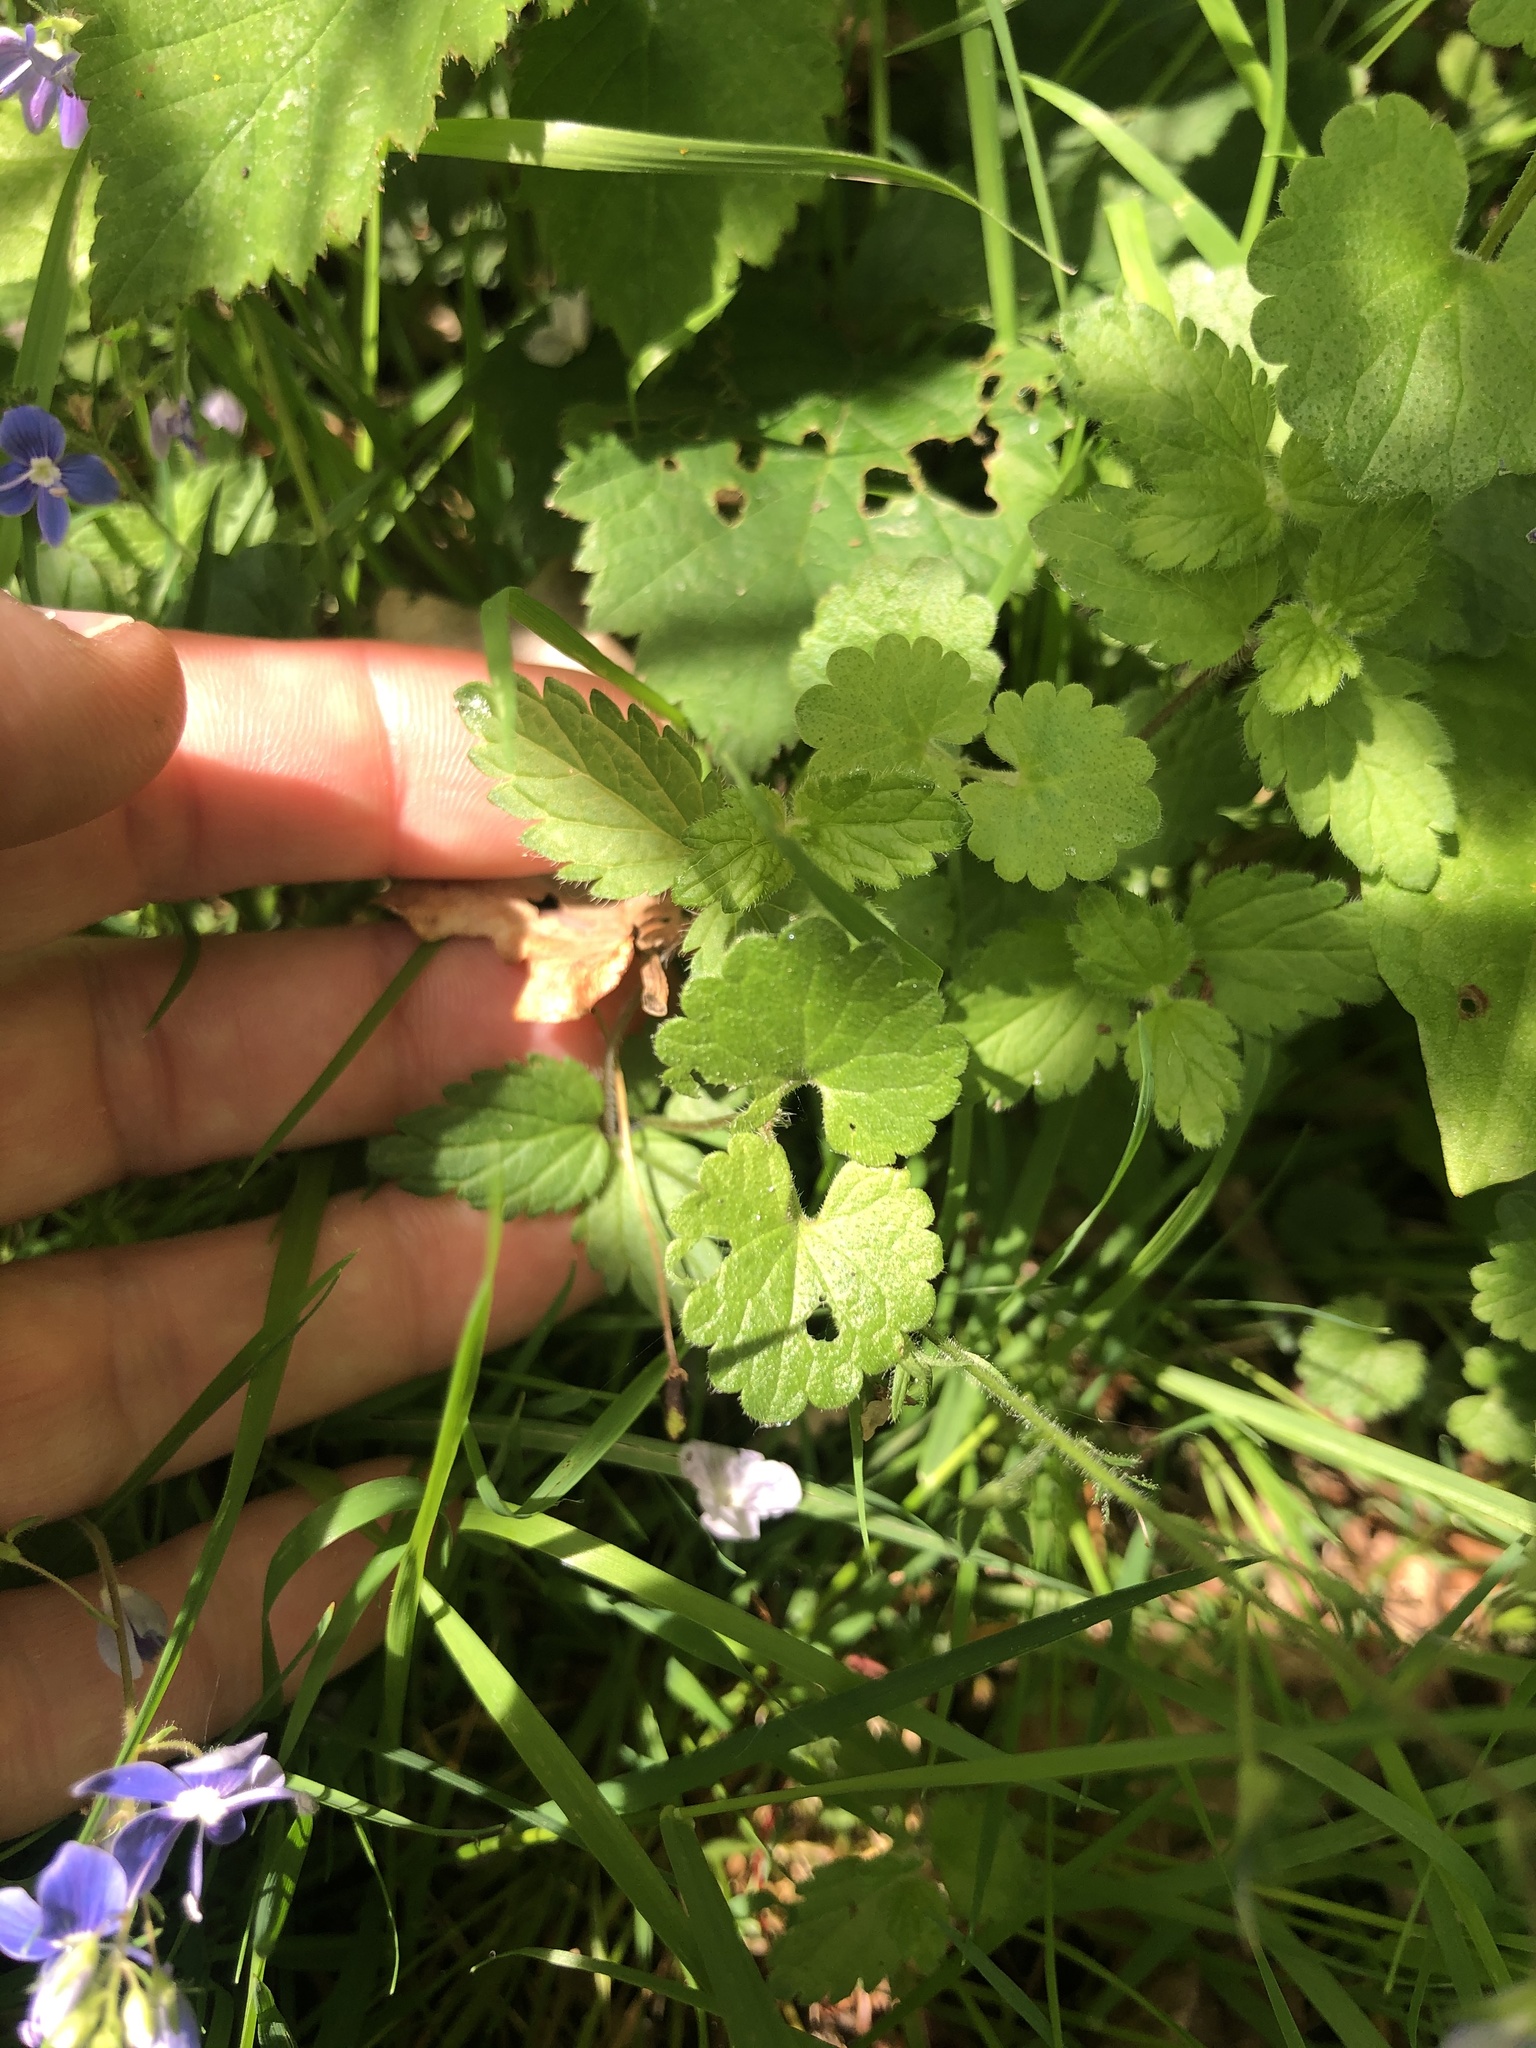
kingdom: Plantae
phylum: Tracheophyta
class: Magnoliopsida
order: Lamiales
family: Plantaginaceae
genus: Veronica
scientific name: Veronica chamaedrys
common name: Germander speedwell
